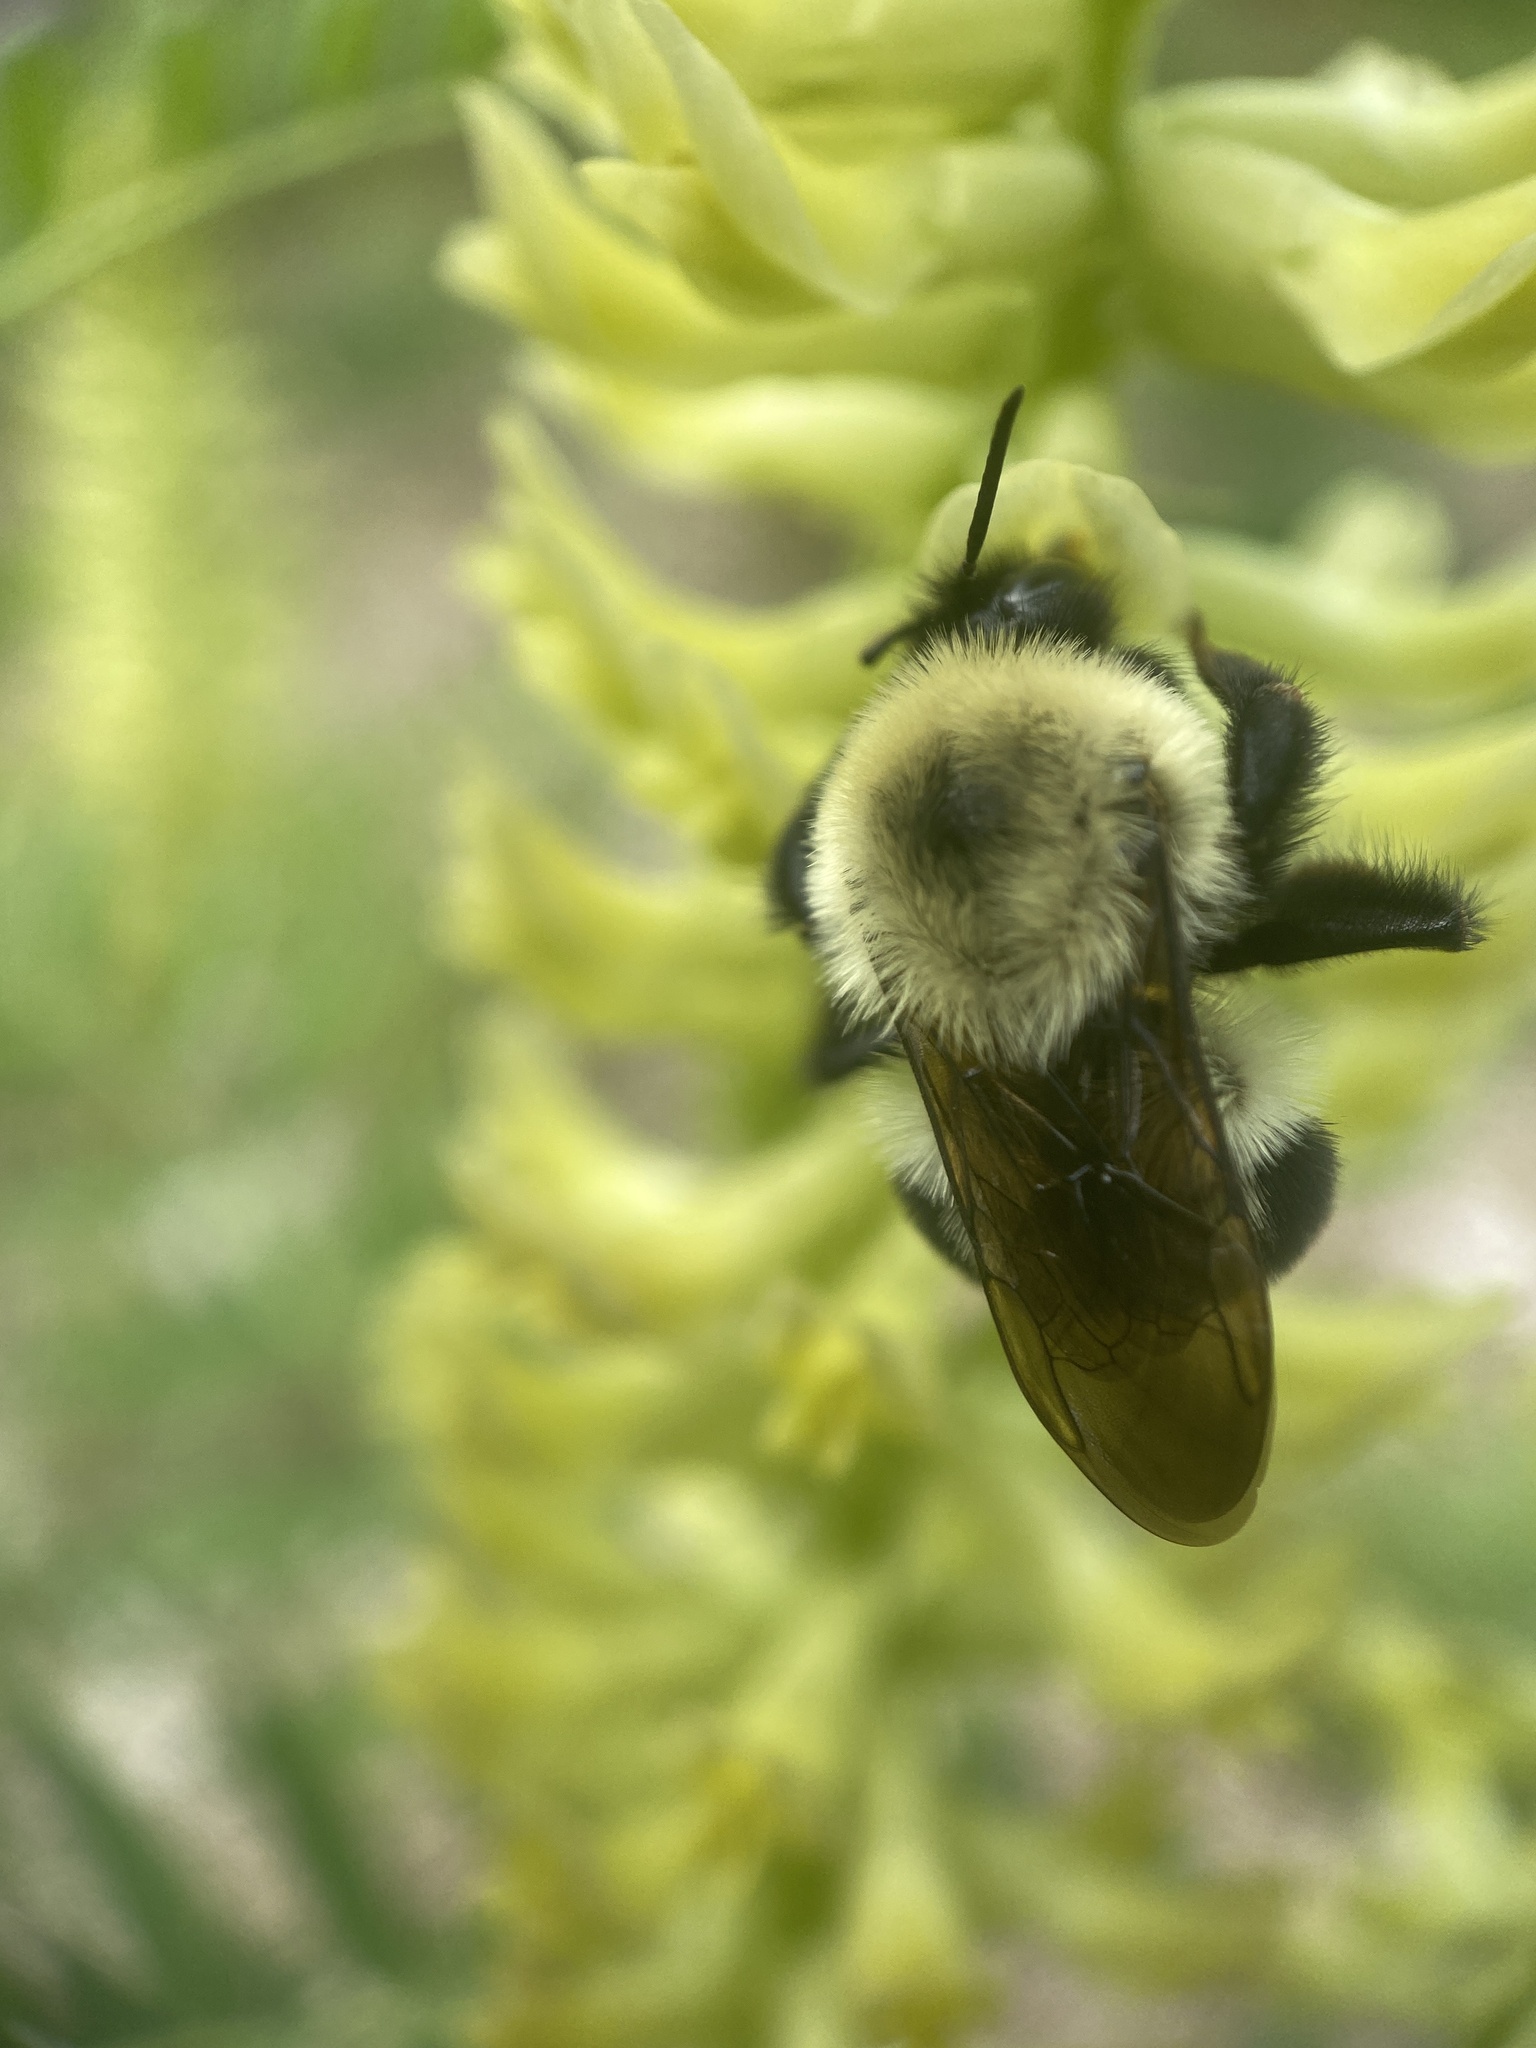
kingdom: Animalia
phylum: Arthropoda
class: Insecta
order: Hymenoptera
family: Apidae
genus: Bombus
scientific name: Bombus bimaculatus
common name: Two-spotted bumble bee
